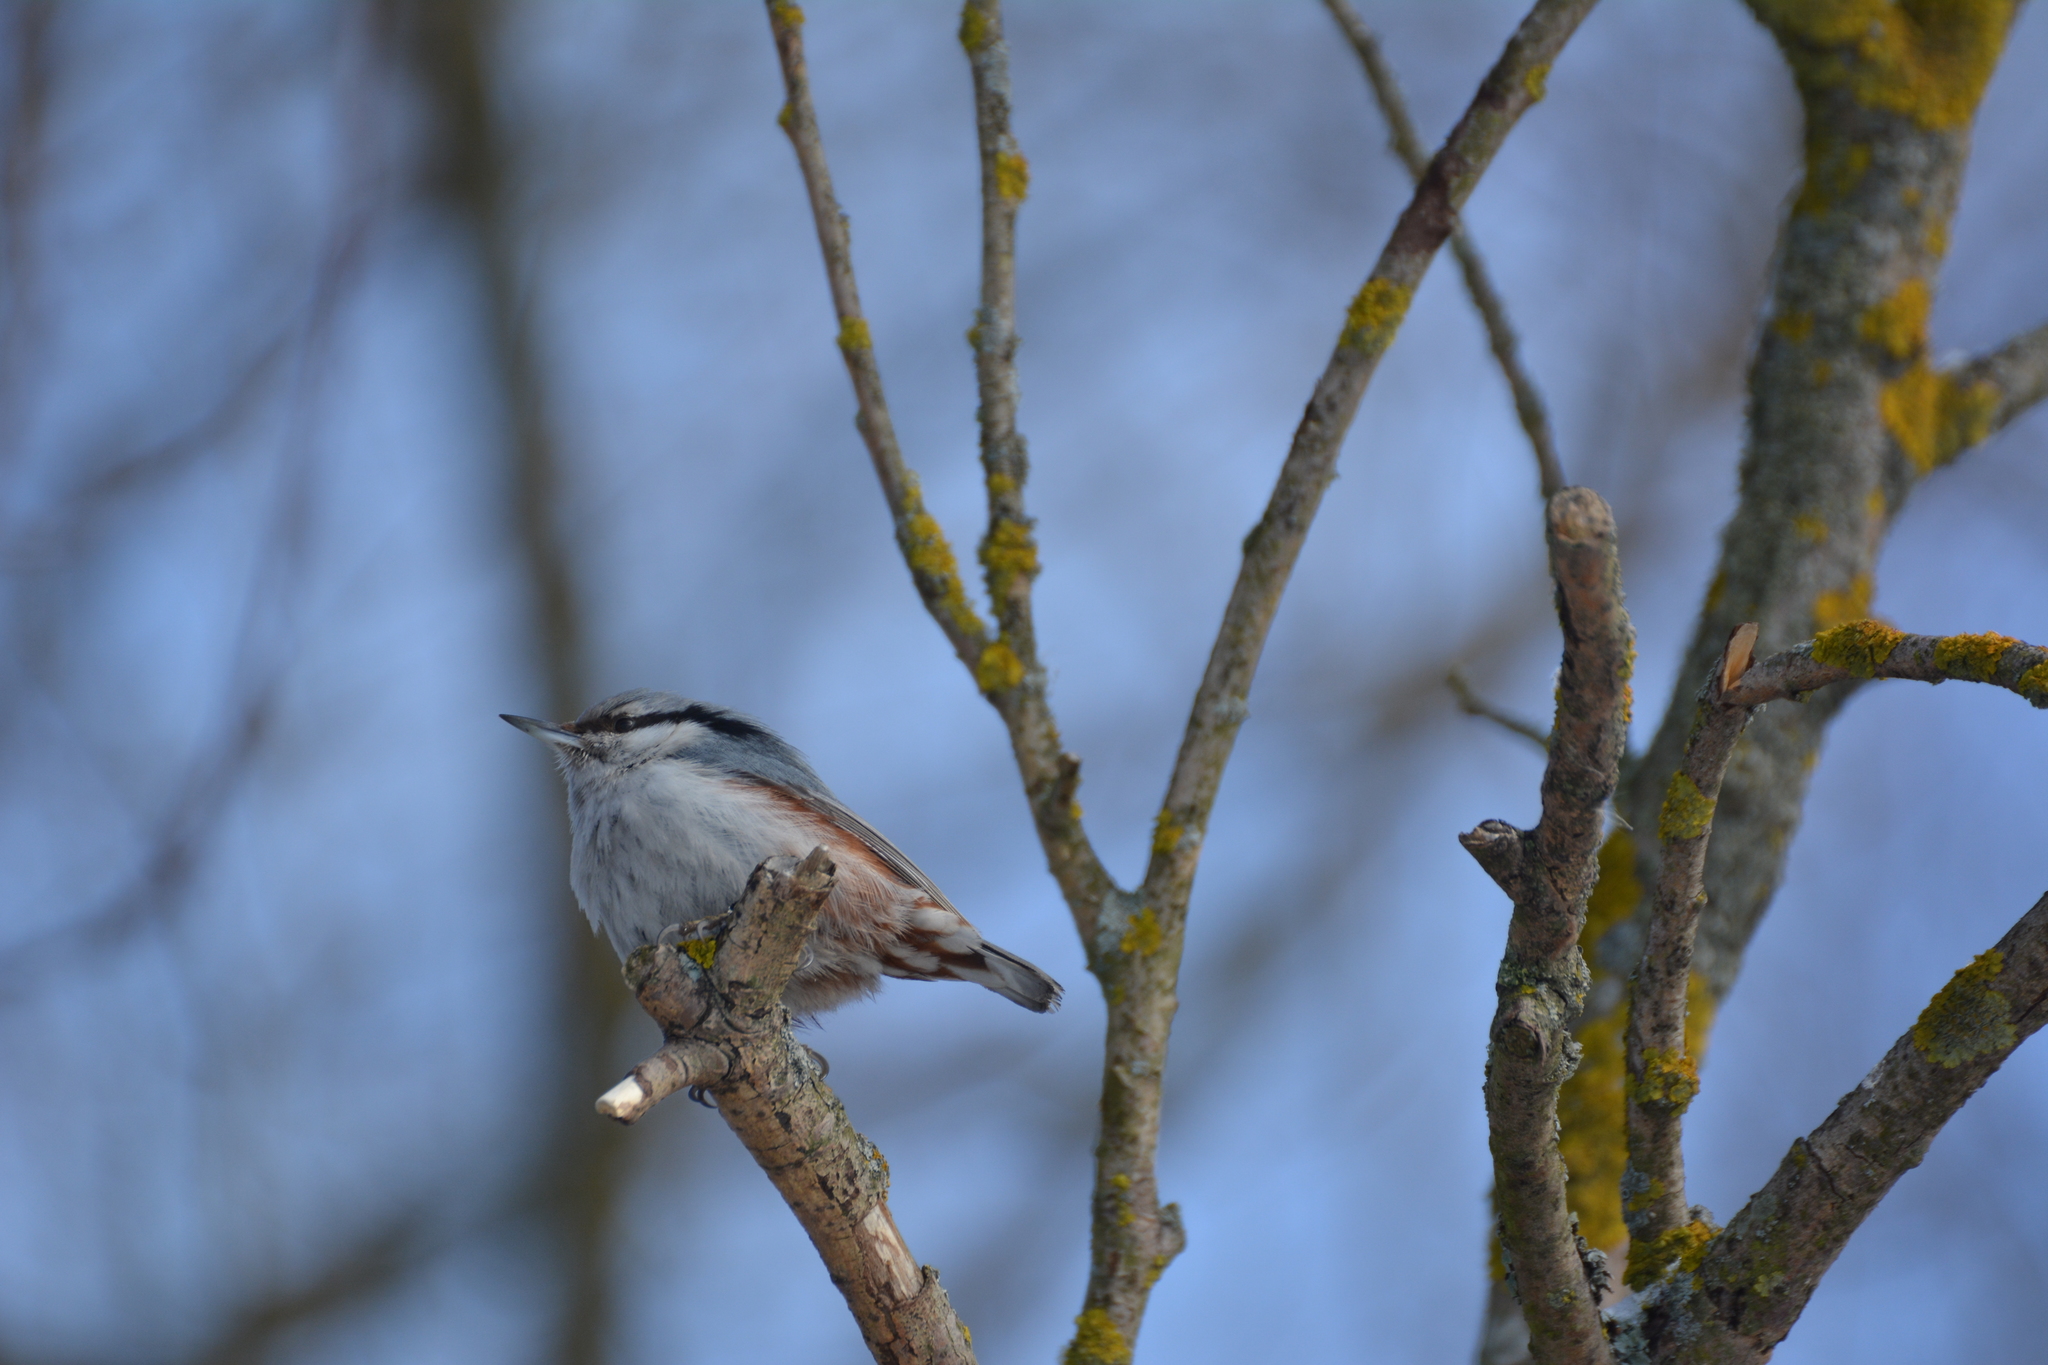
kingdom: Animalia
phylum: Chordata
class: Aves
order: Passeriformes
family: Sittidae
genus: Sitta
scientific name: Sitta europaea
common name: Eurasian nuthatch
